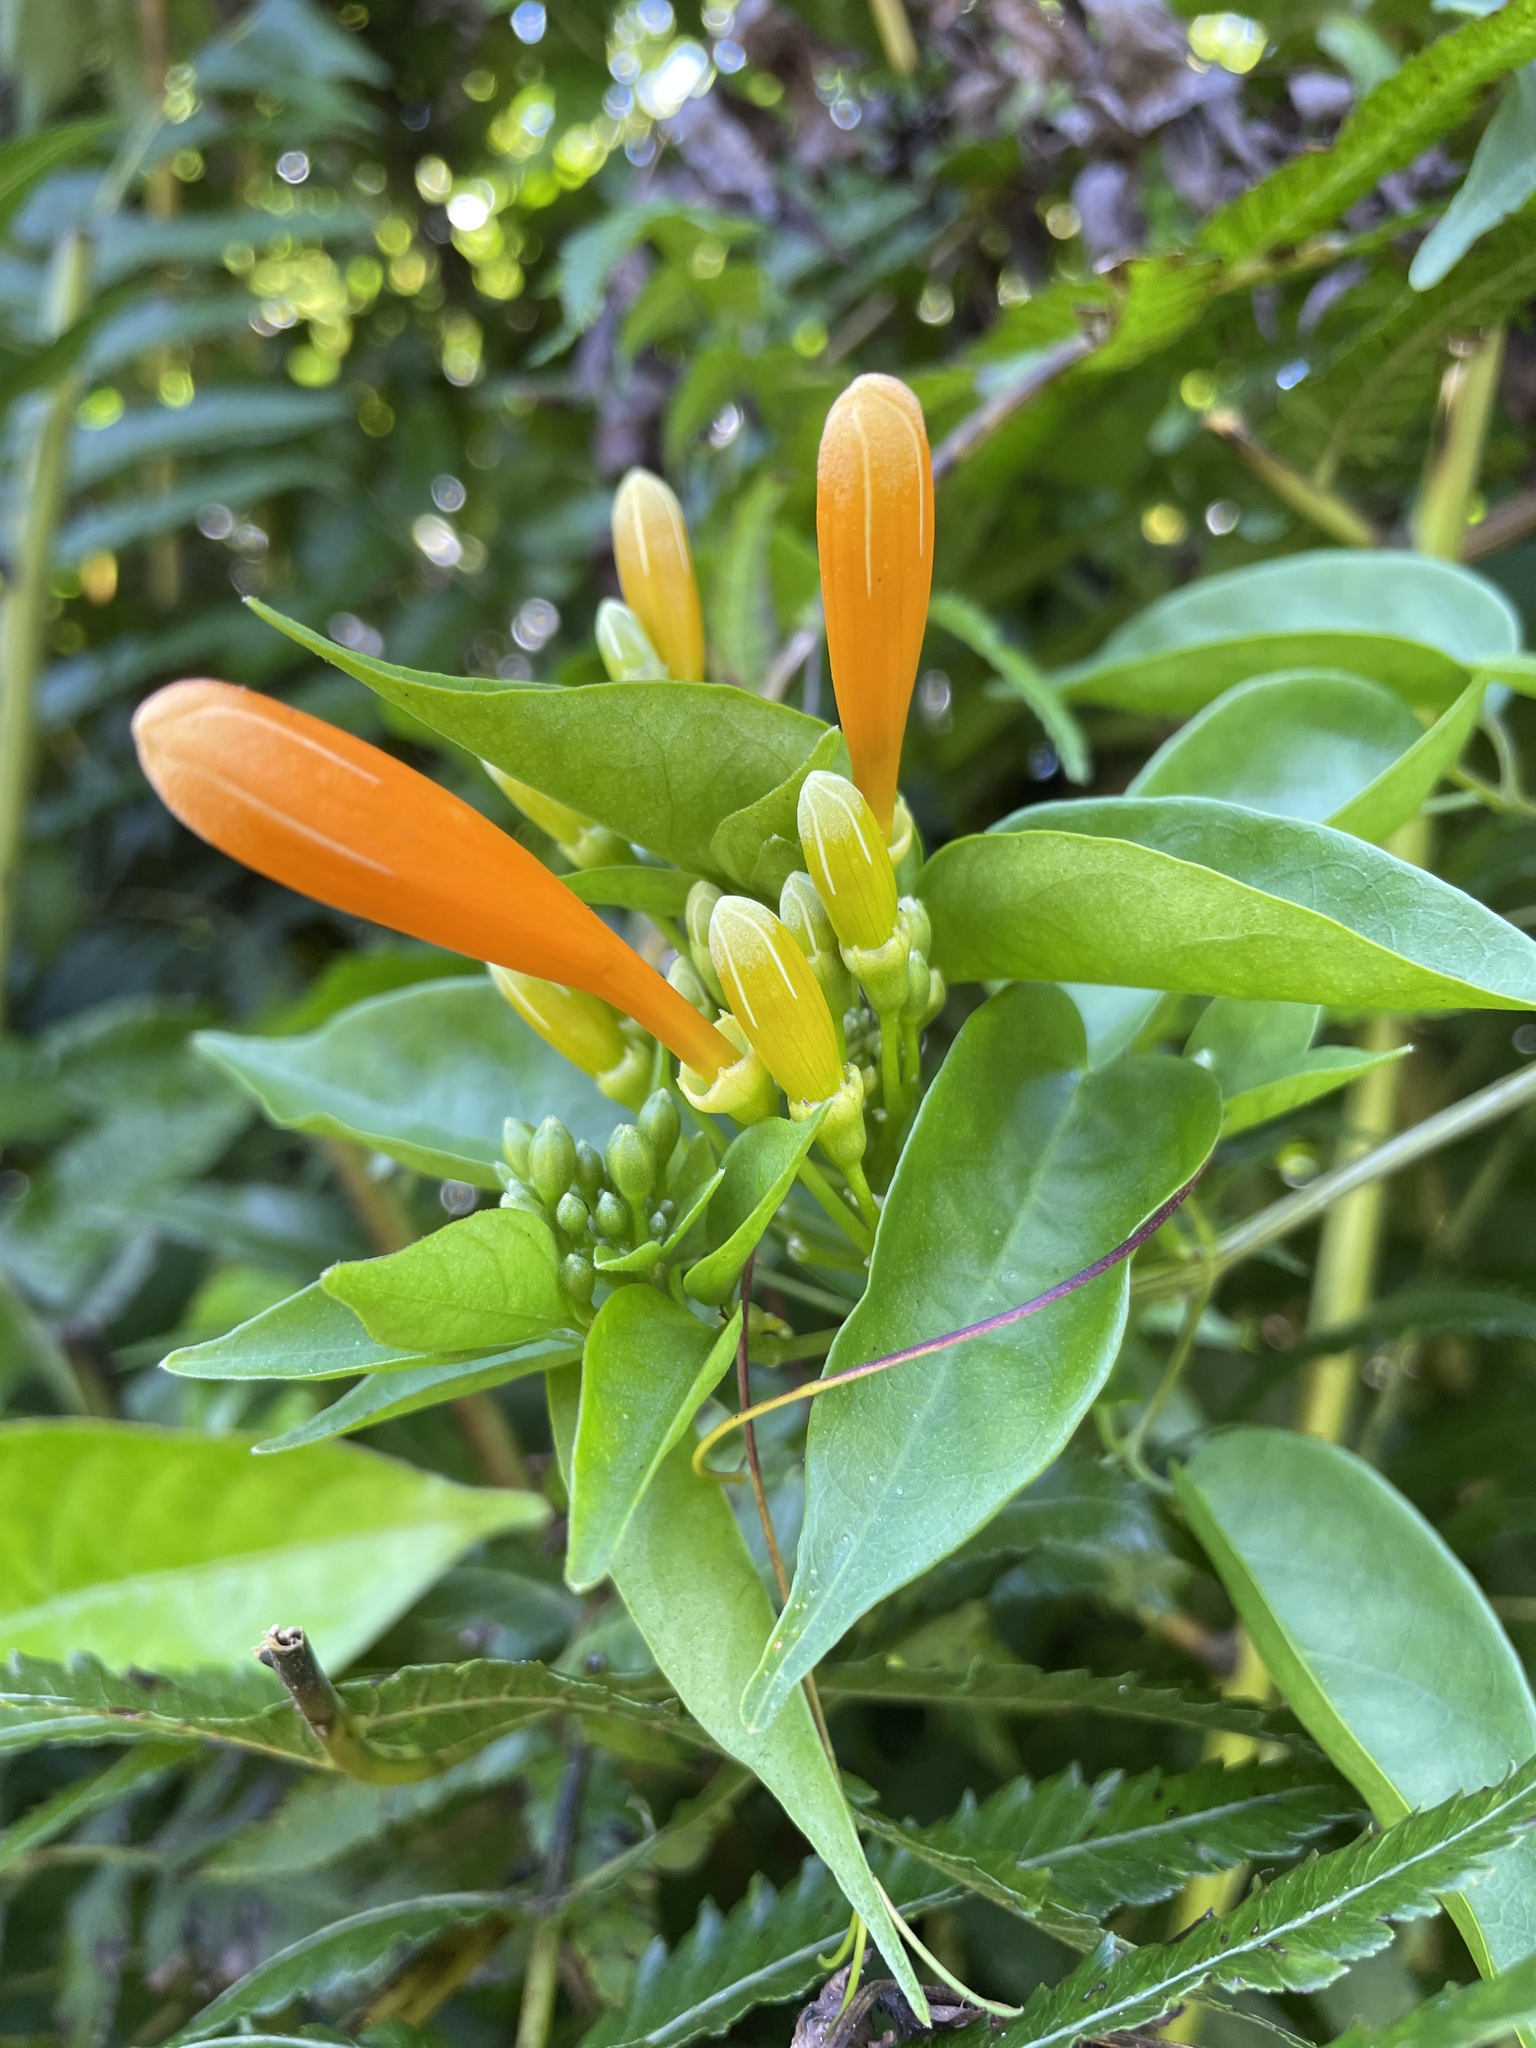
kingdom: Plantae
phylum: Tracheophyta
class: Magnoliopsida
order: Lamiales
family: Bignoniaceae
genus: Pyrostegia
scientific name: Pyrostegia venusta
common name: Flamevine
